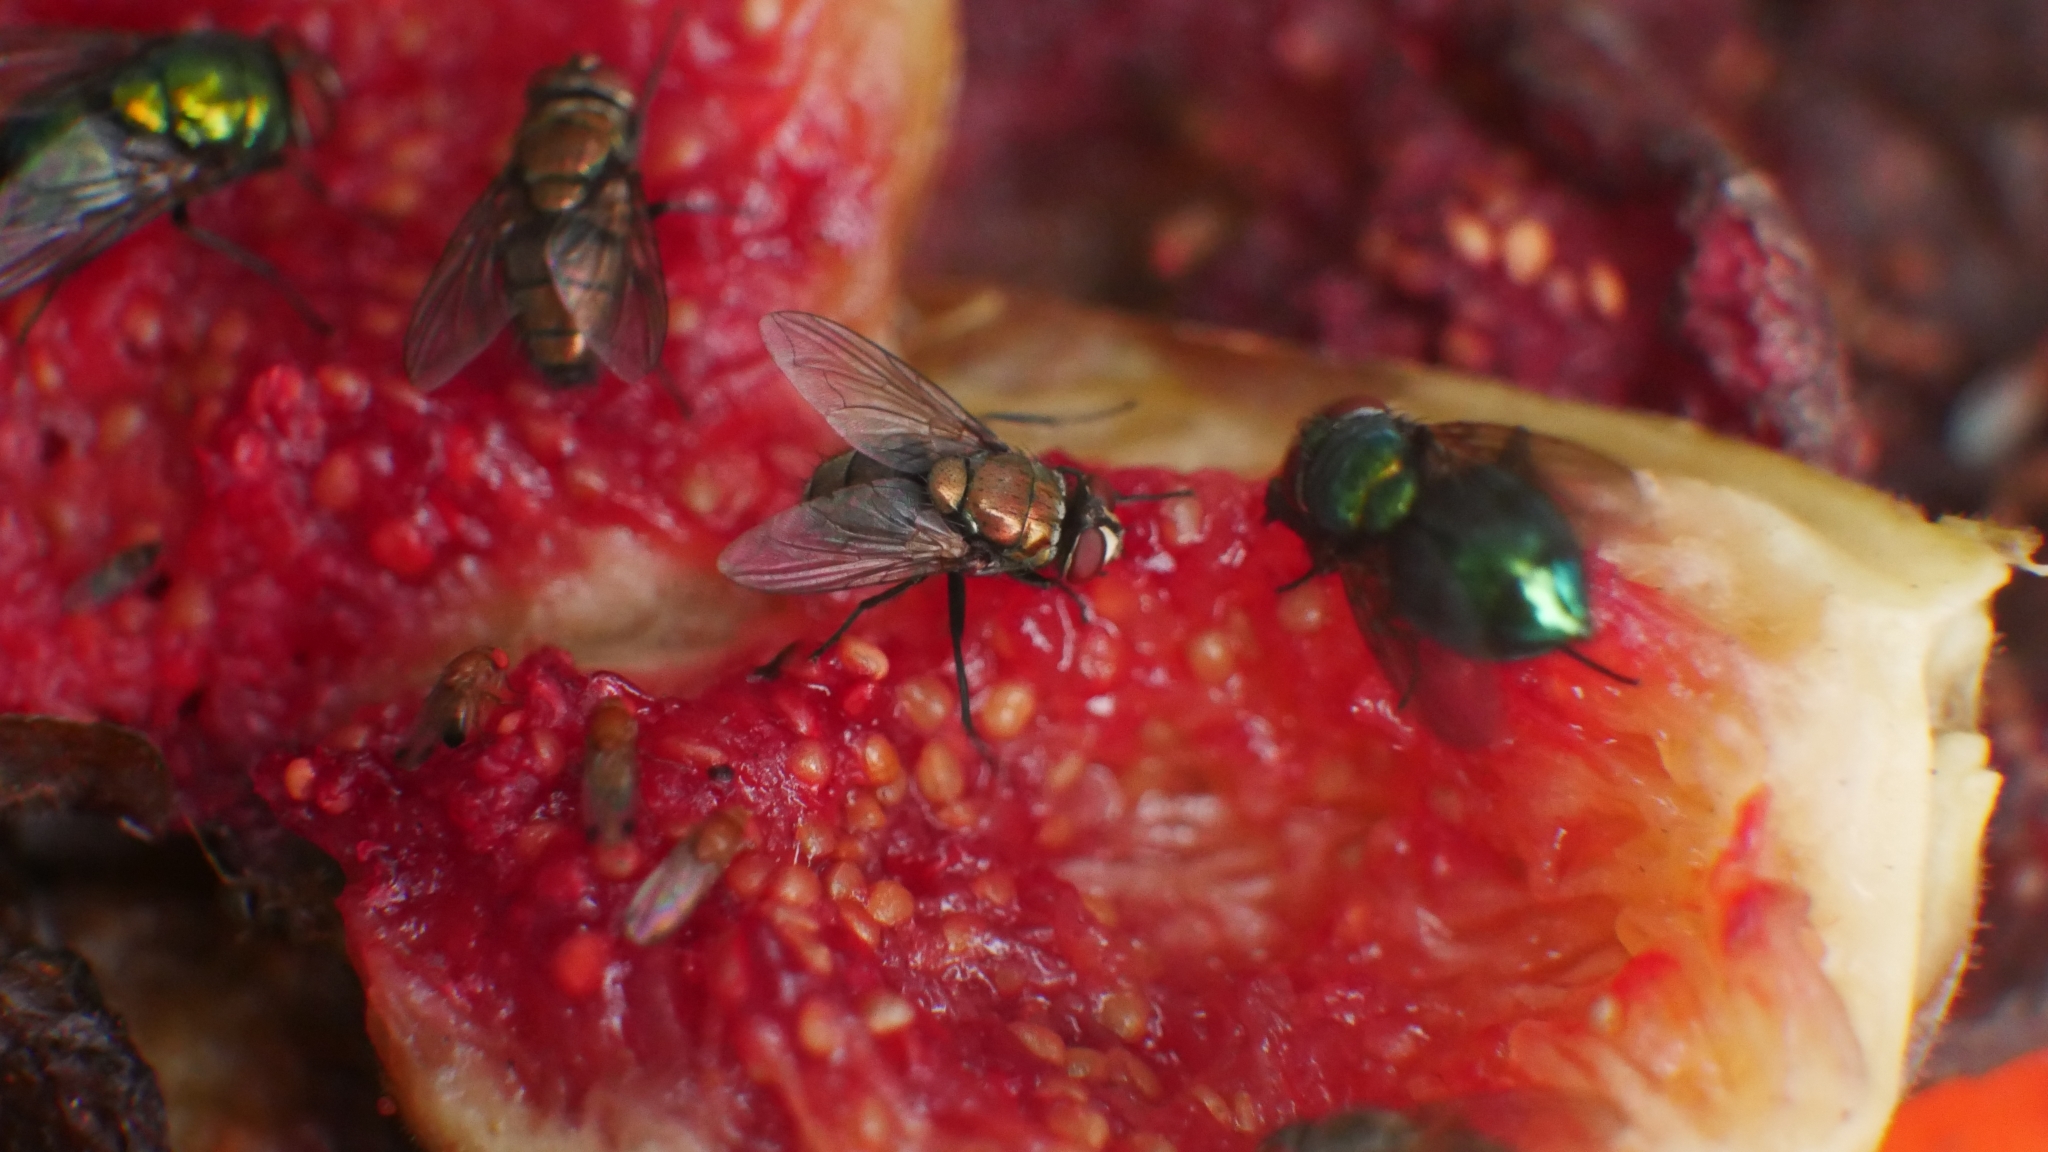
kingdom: Animalia
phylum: Arthropoda
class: Insecta
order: Diptera
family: Calliphoridae
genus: Lucilia
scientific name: Lucilia cuprina
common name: Sheep blow fly
